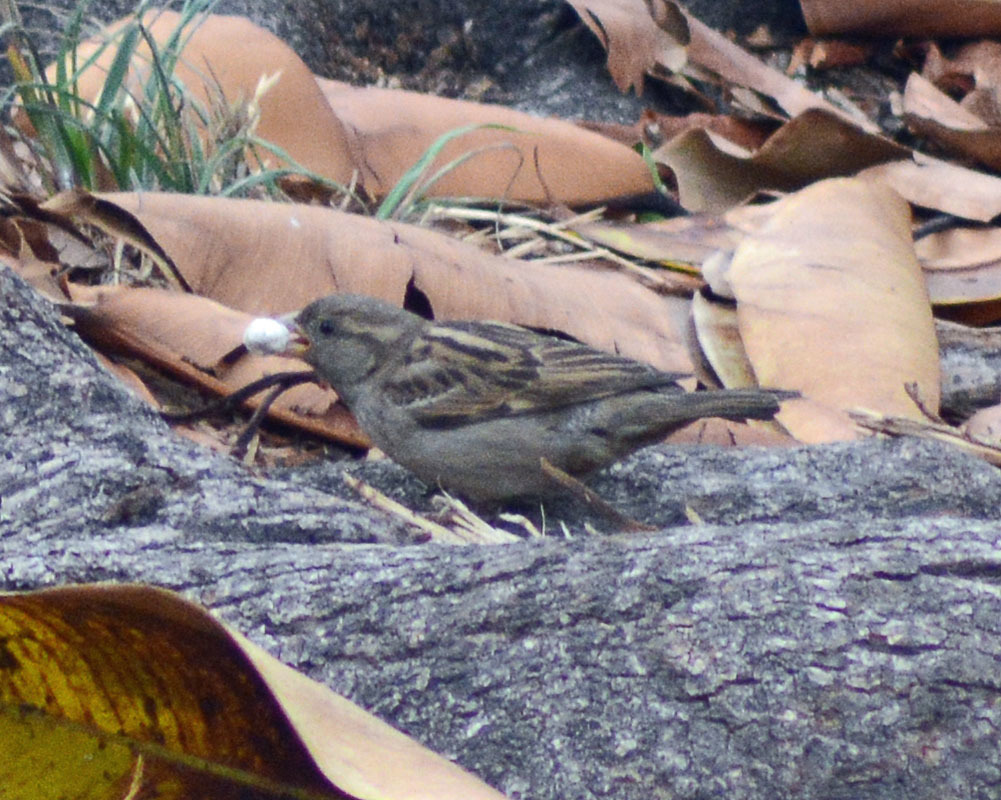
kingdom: Animalia
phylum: Chordata
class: Aves
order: Passeriformes
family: Passeridae
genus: Passer
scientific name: Passer domesticus
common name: House sparrow
